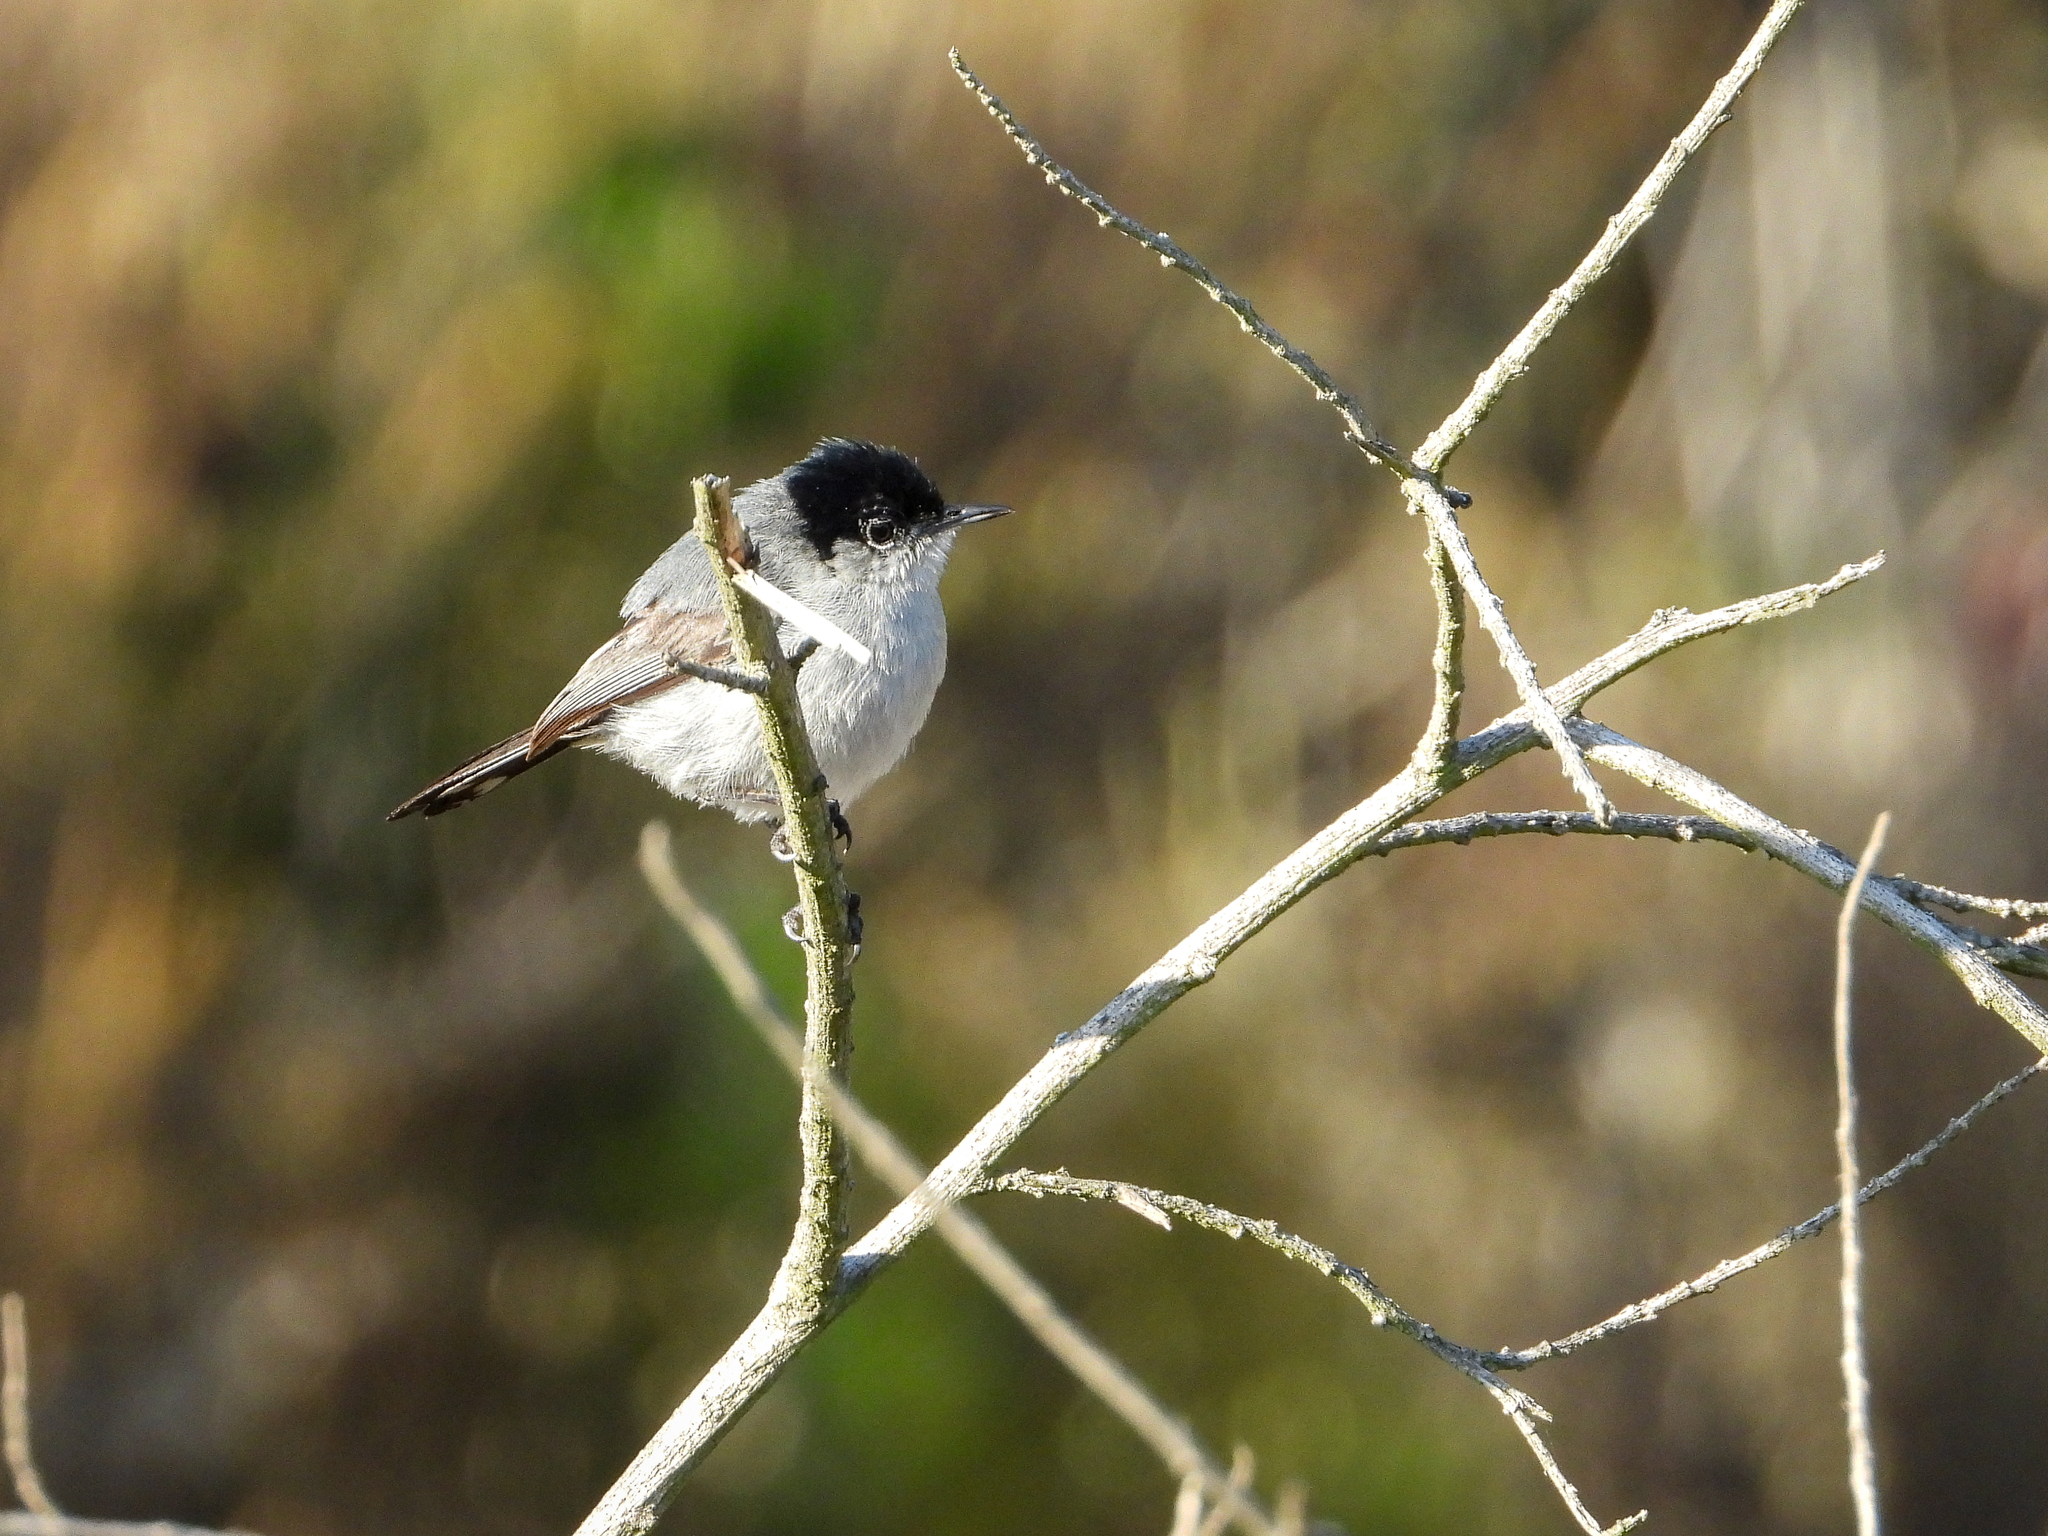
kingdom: Animalia
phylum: Chordata
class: Aves
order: Passeriformes
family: Polioptilidae
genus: Polioptila
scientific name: Polioptila californica
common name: California gnatcatcher
